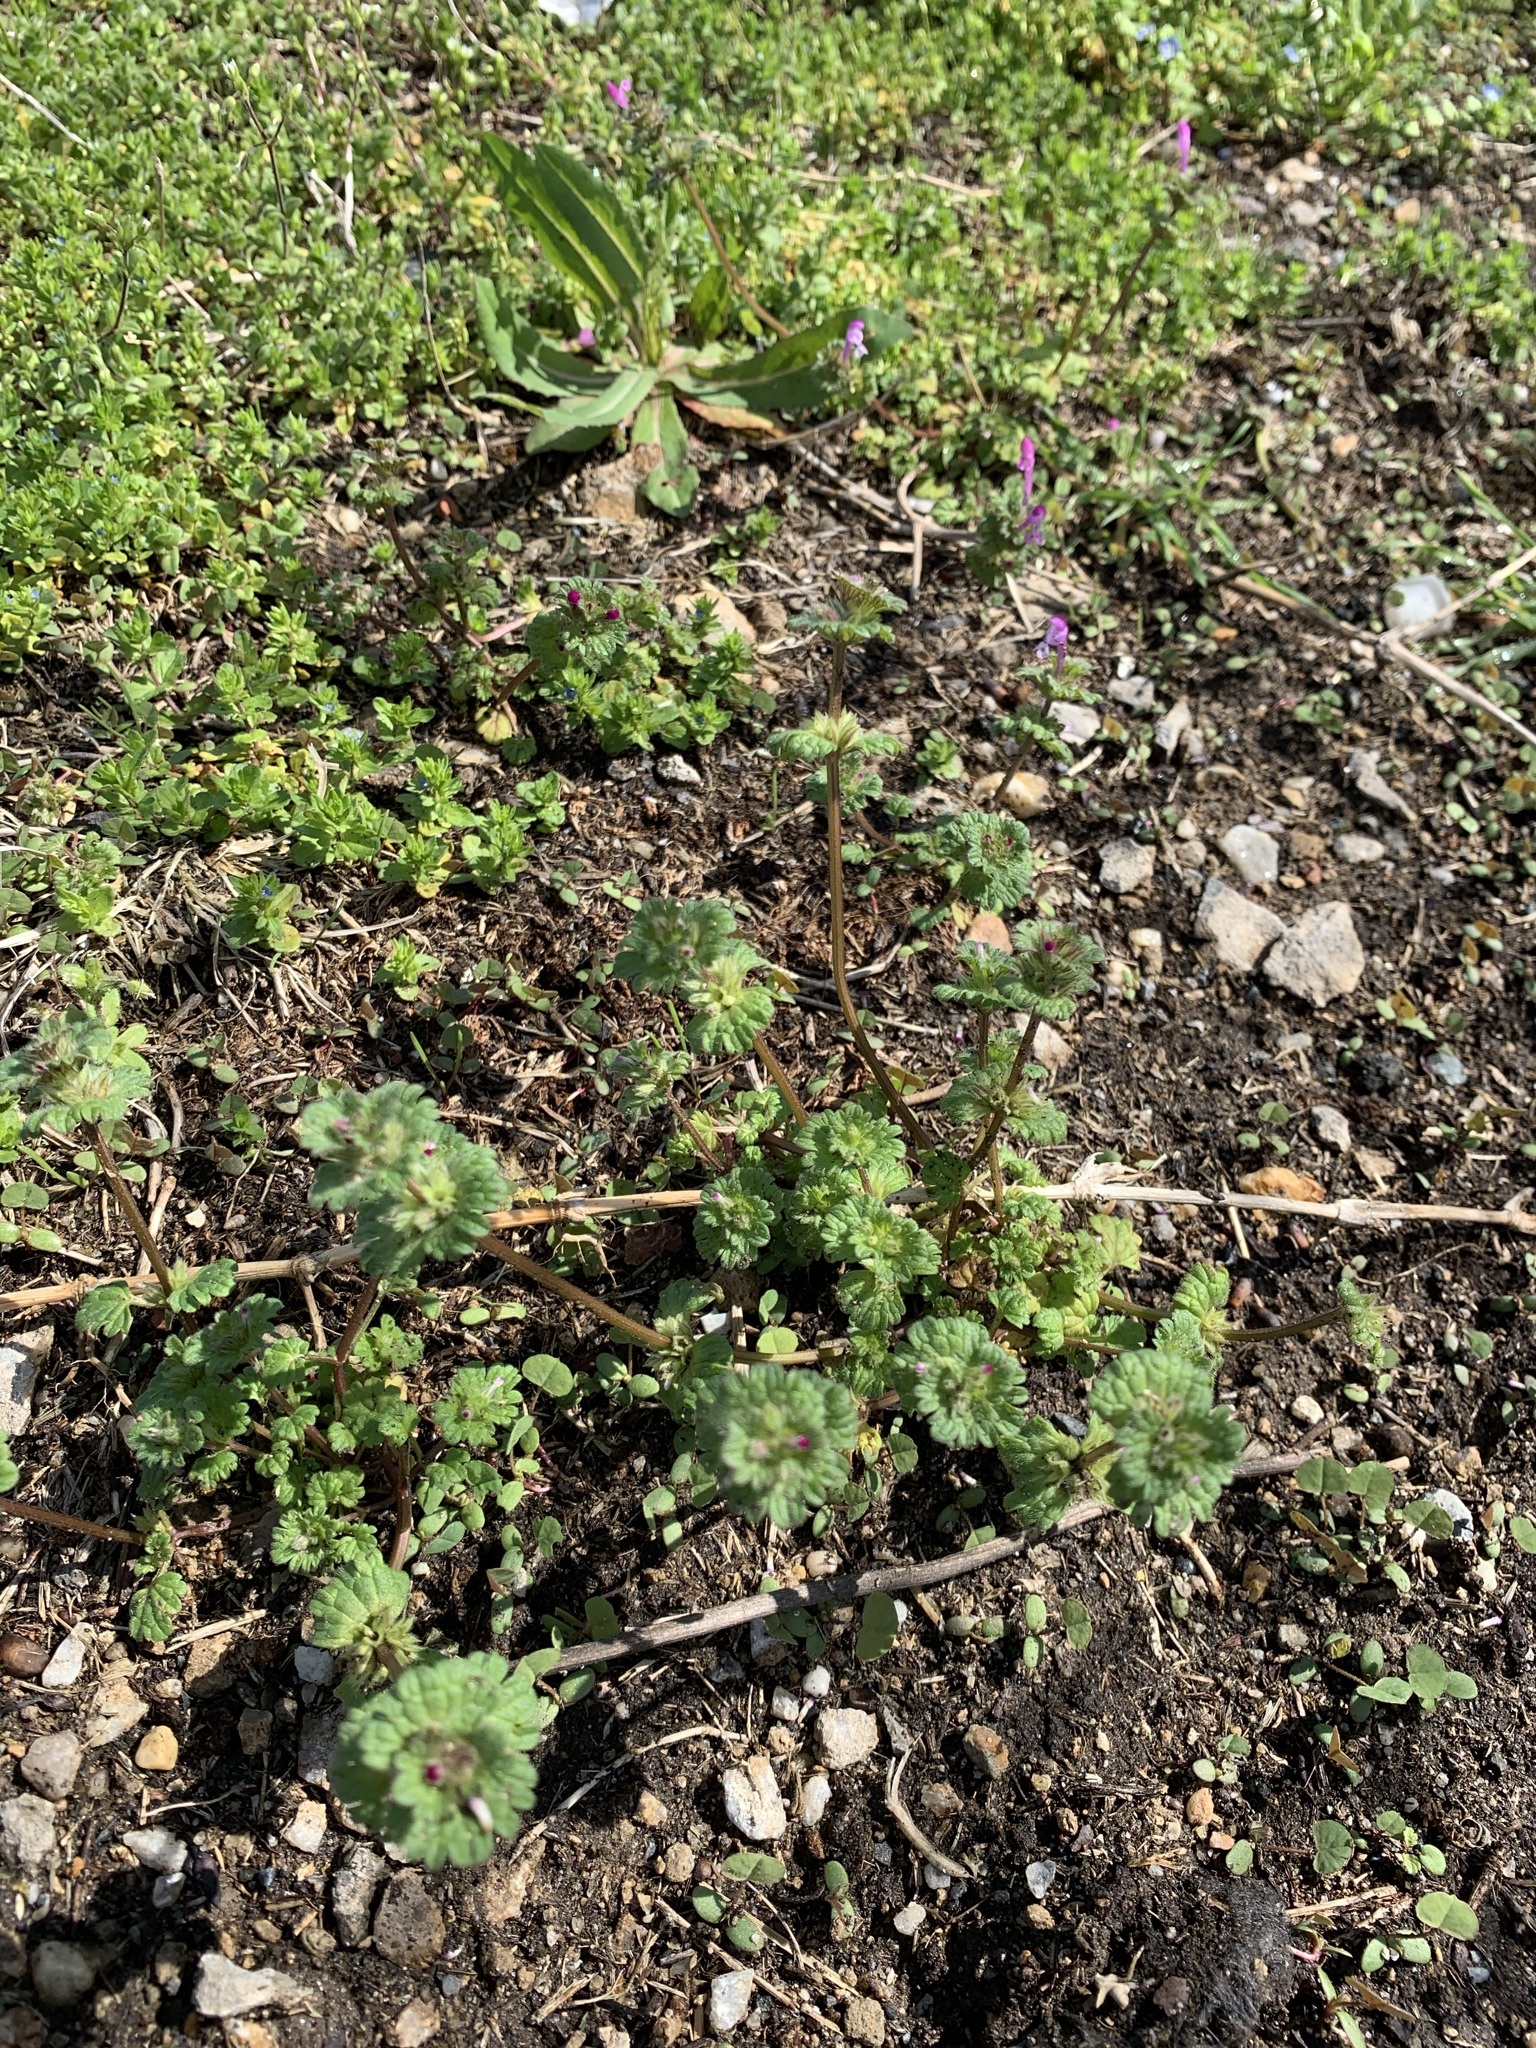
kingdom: Plantae
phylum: Tracheophyta
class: Magnoliopsida
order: Lamiales
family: Lamiaceae
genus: Lamium
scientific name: Lamium amplexicaule
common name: Henbit dead-nettle
